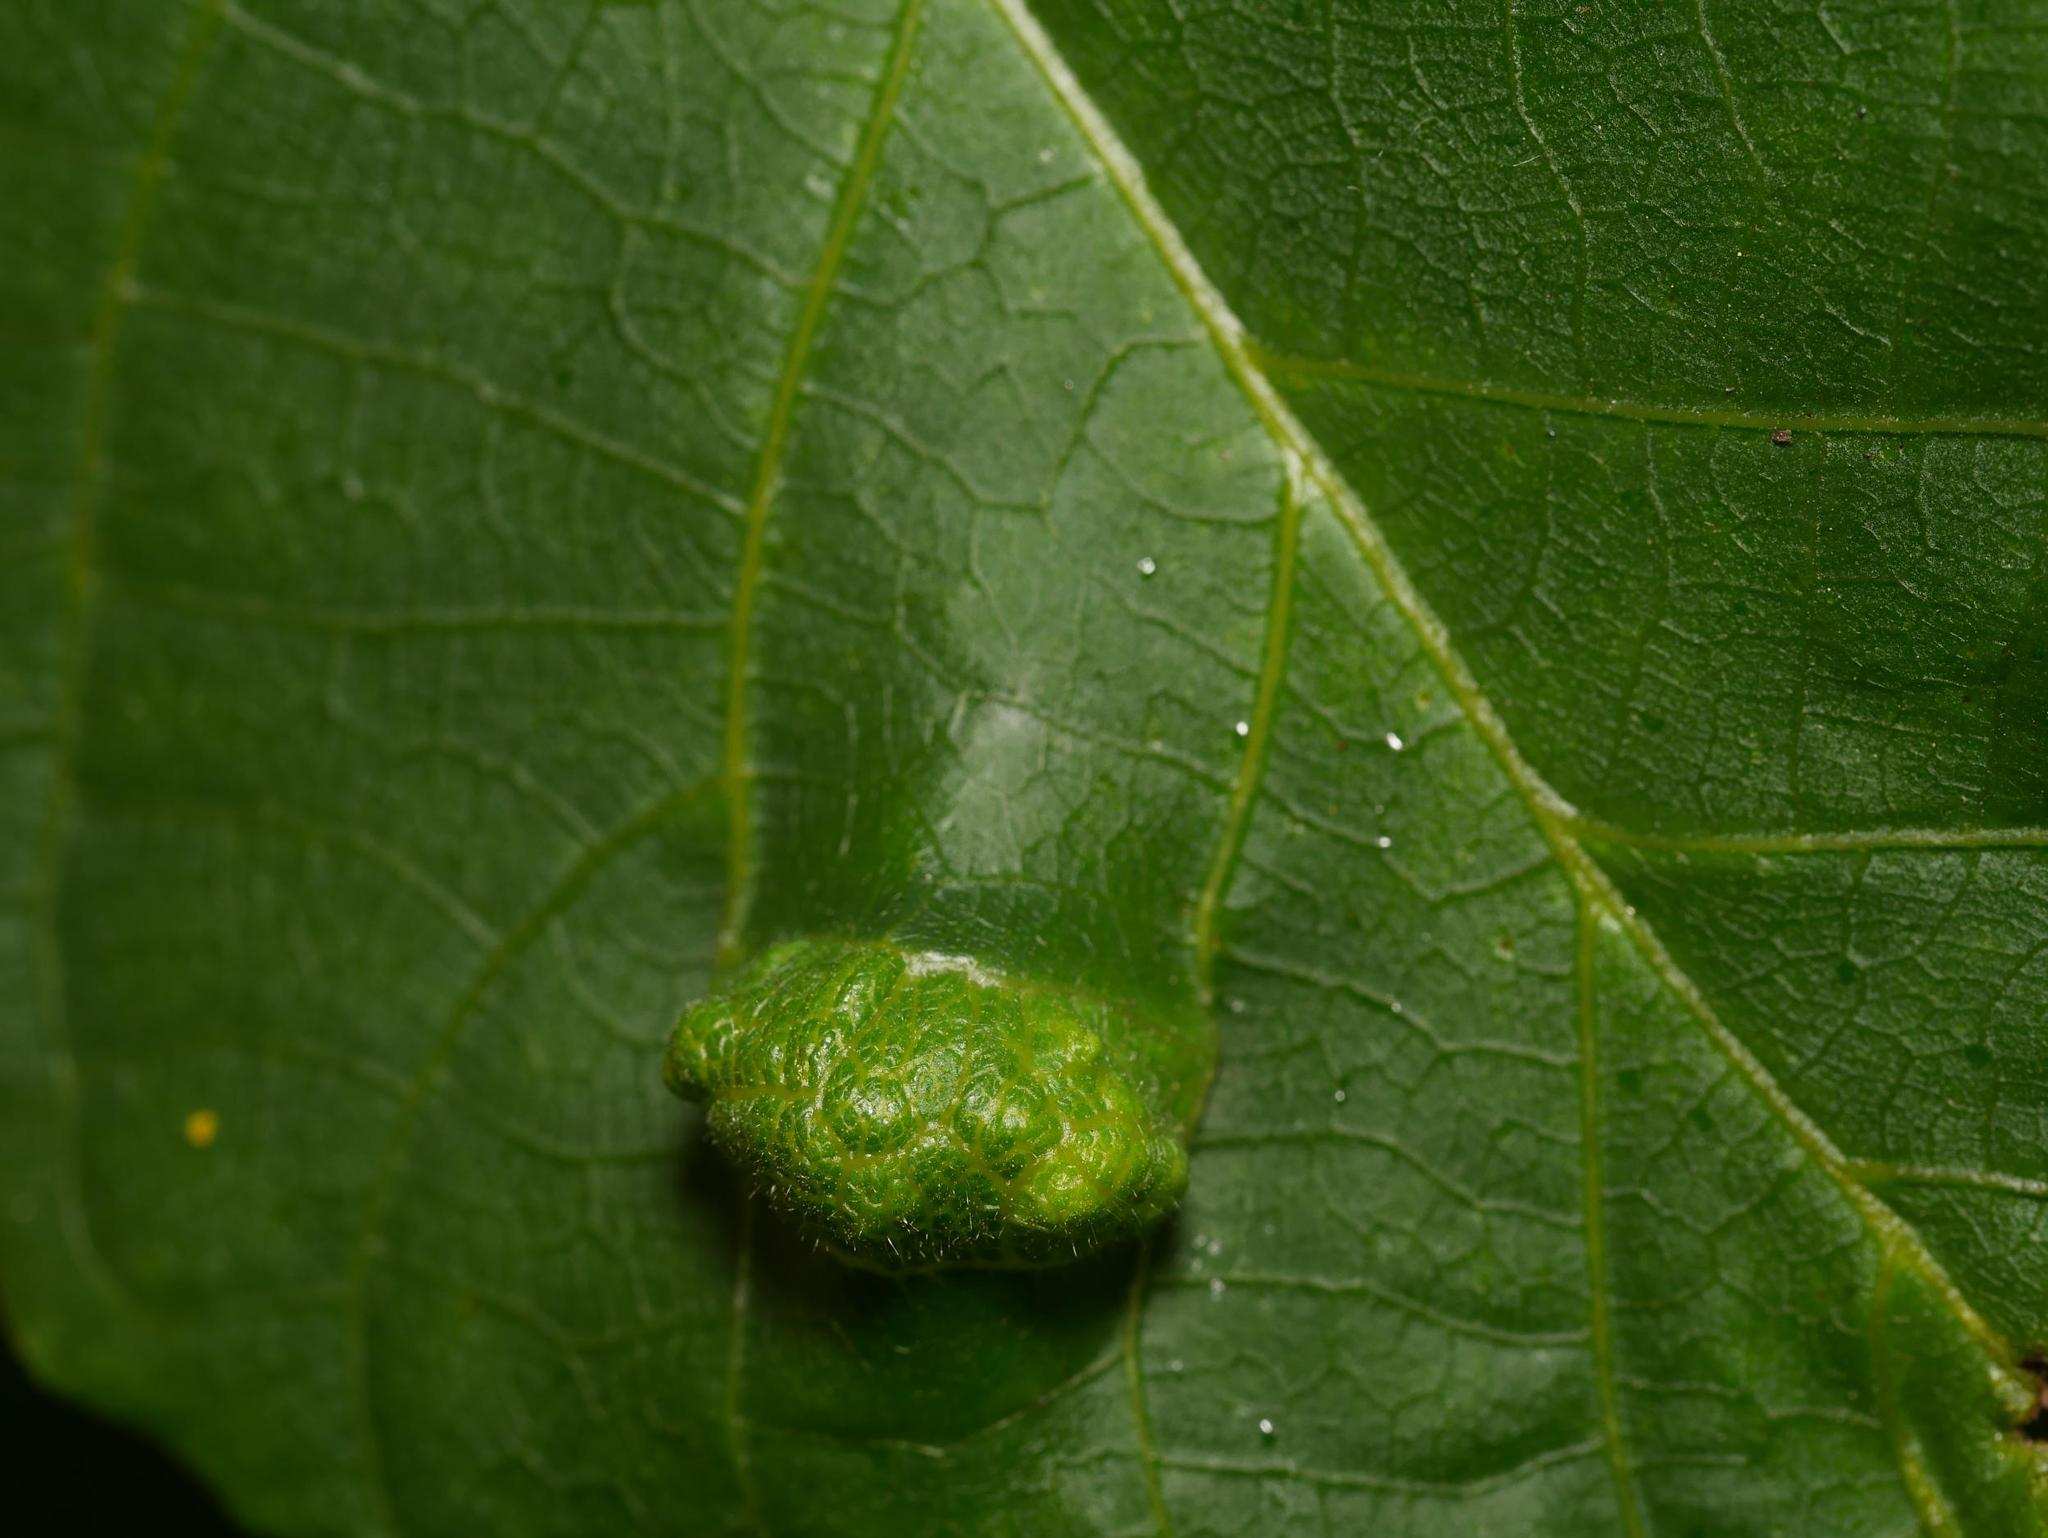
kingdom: Animalia
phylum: Arthropoda
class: Arachnida
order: Trombidiformes
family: Eriophyidae
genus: Aceria
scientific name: Aceria erinea
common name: Persian walnut erineum mite
